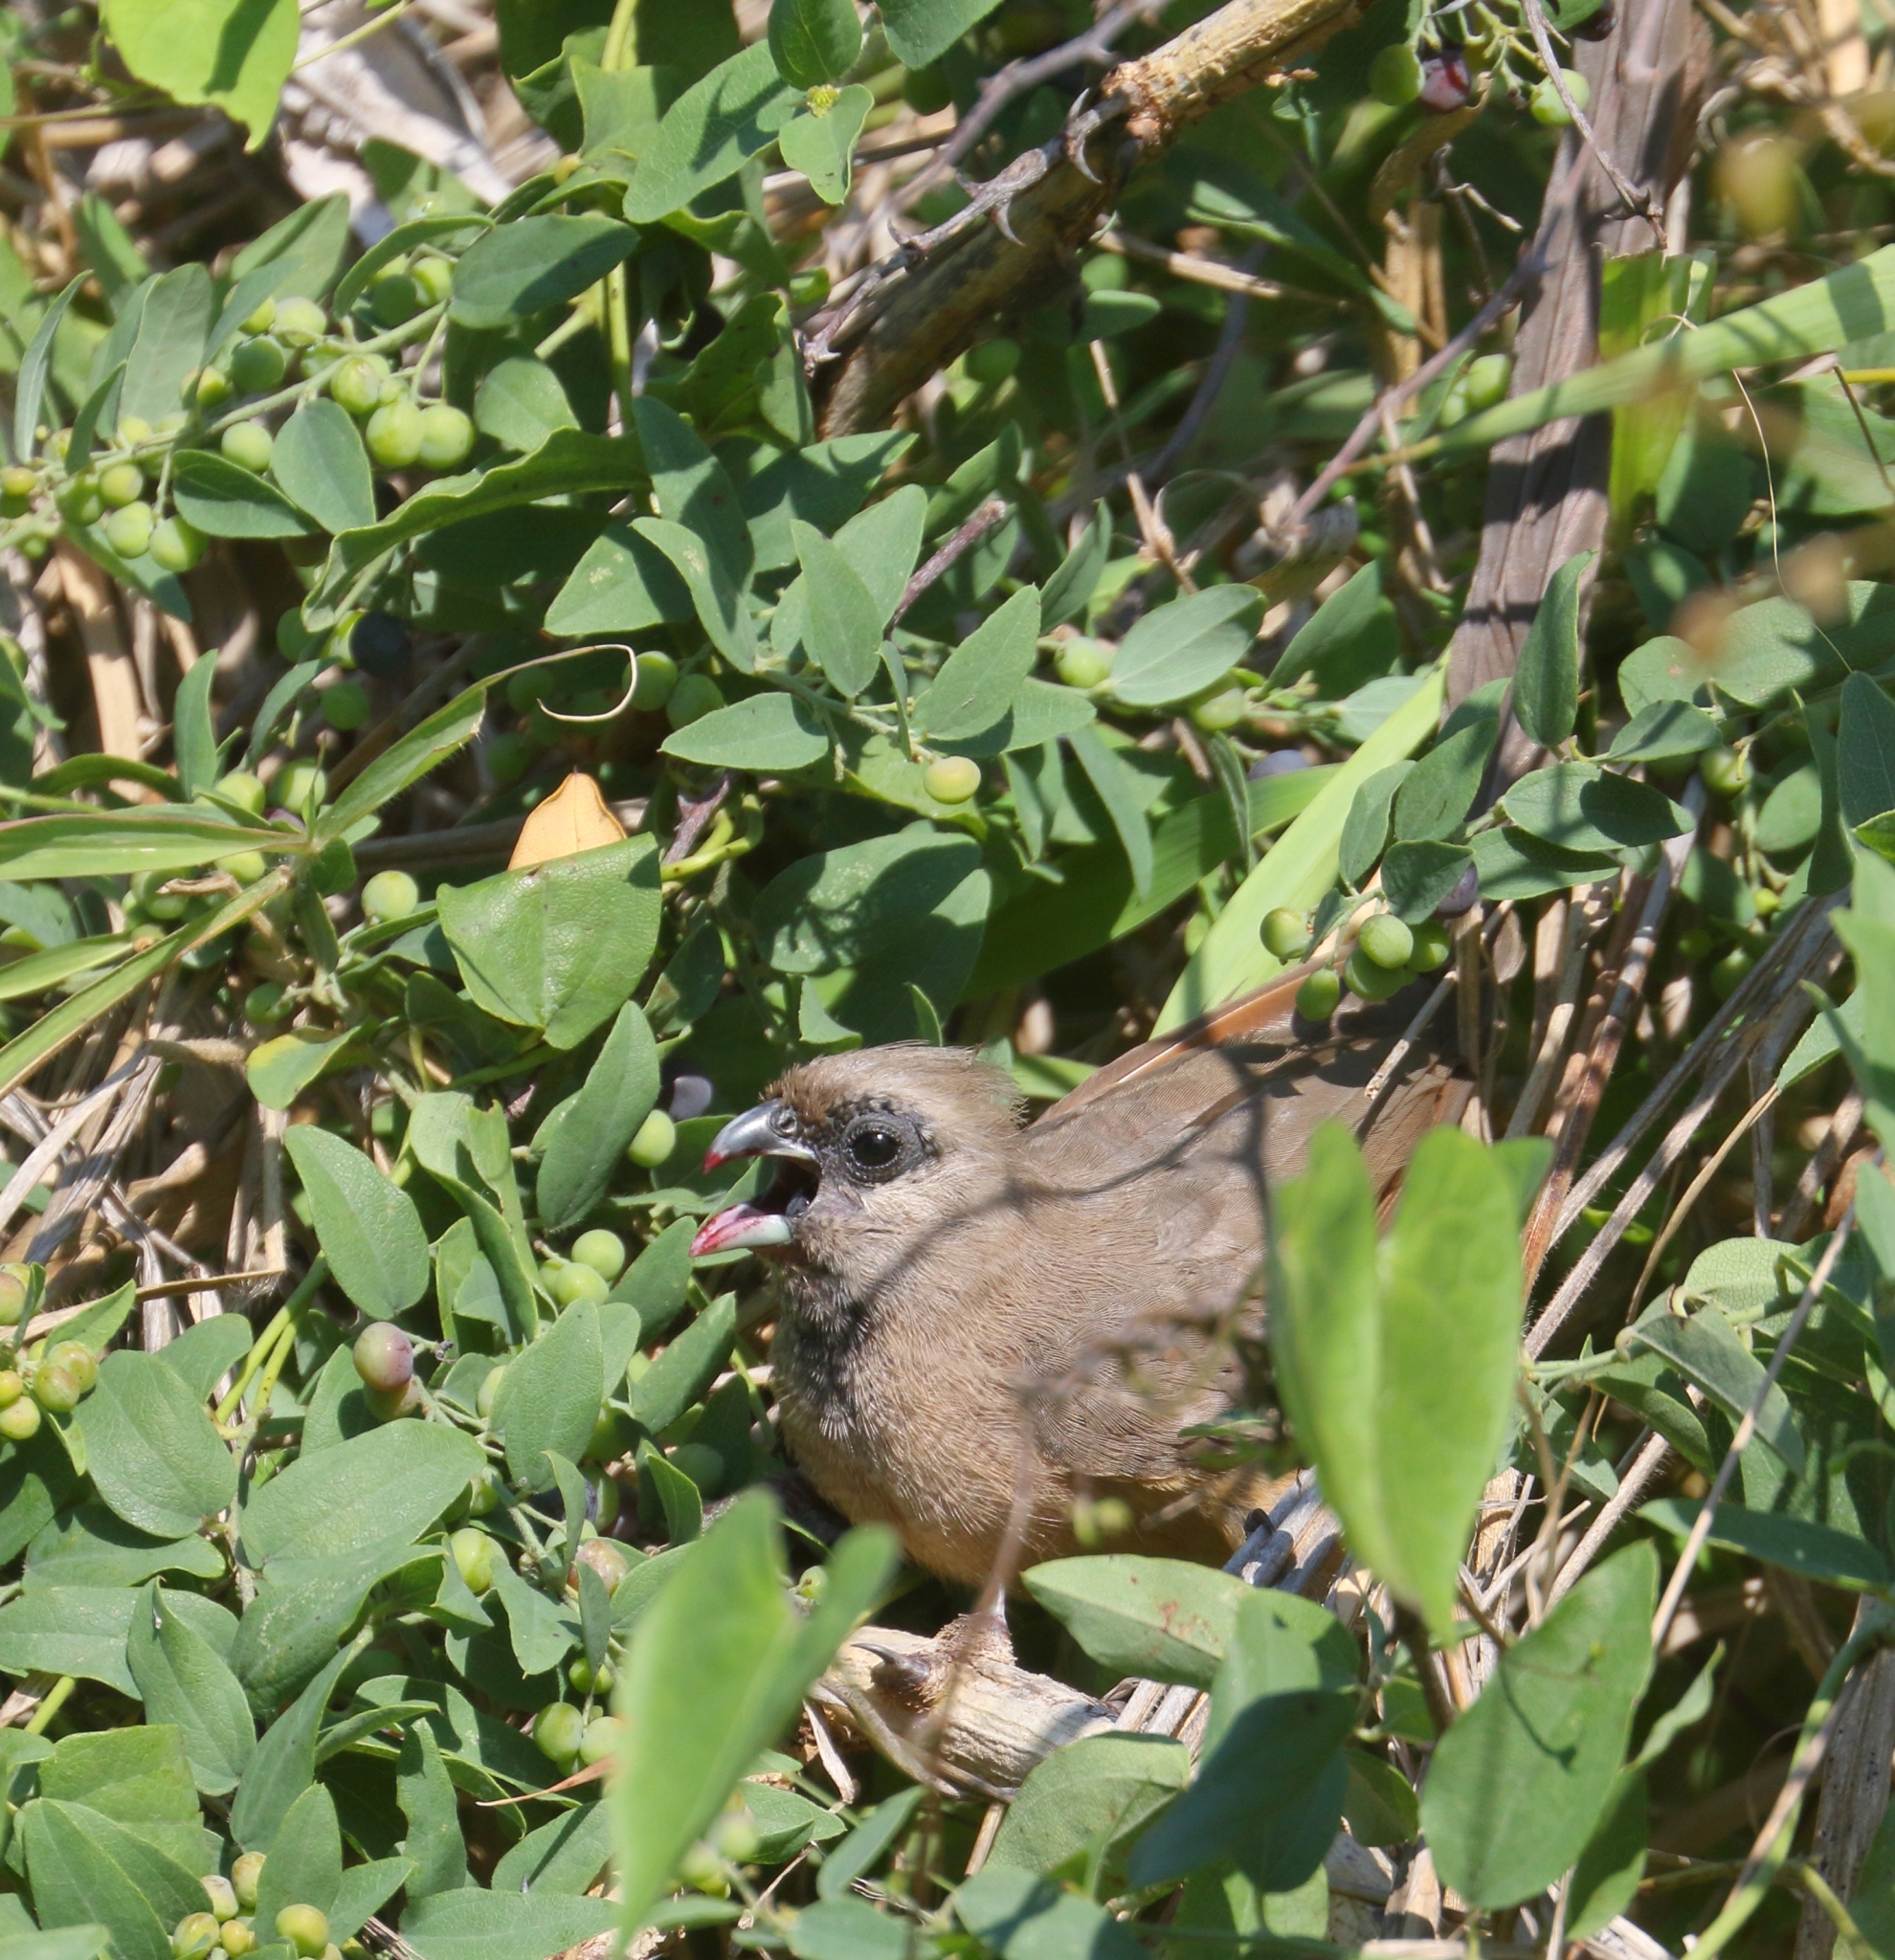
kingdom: Animalia
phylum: Chordata
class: Aves
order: Coliiformes
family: Coliidae
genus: Colius
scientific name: Colius striatus
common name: Speckled mousebird
